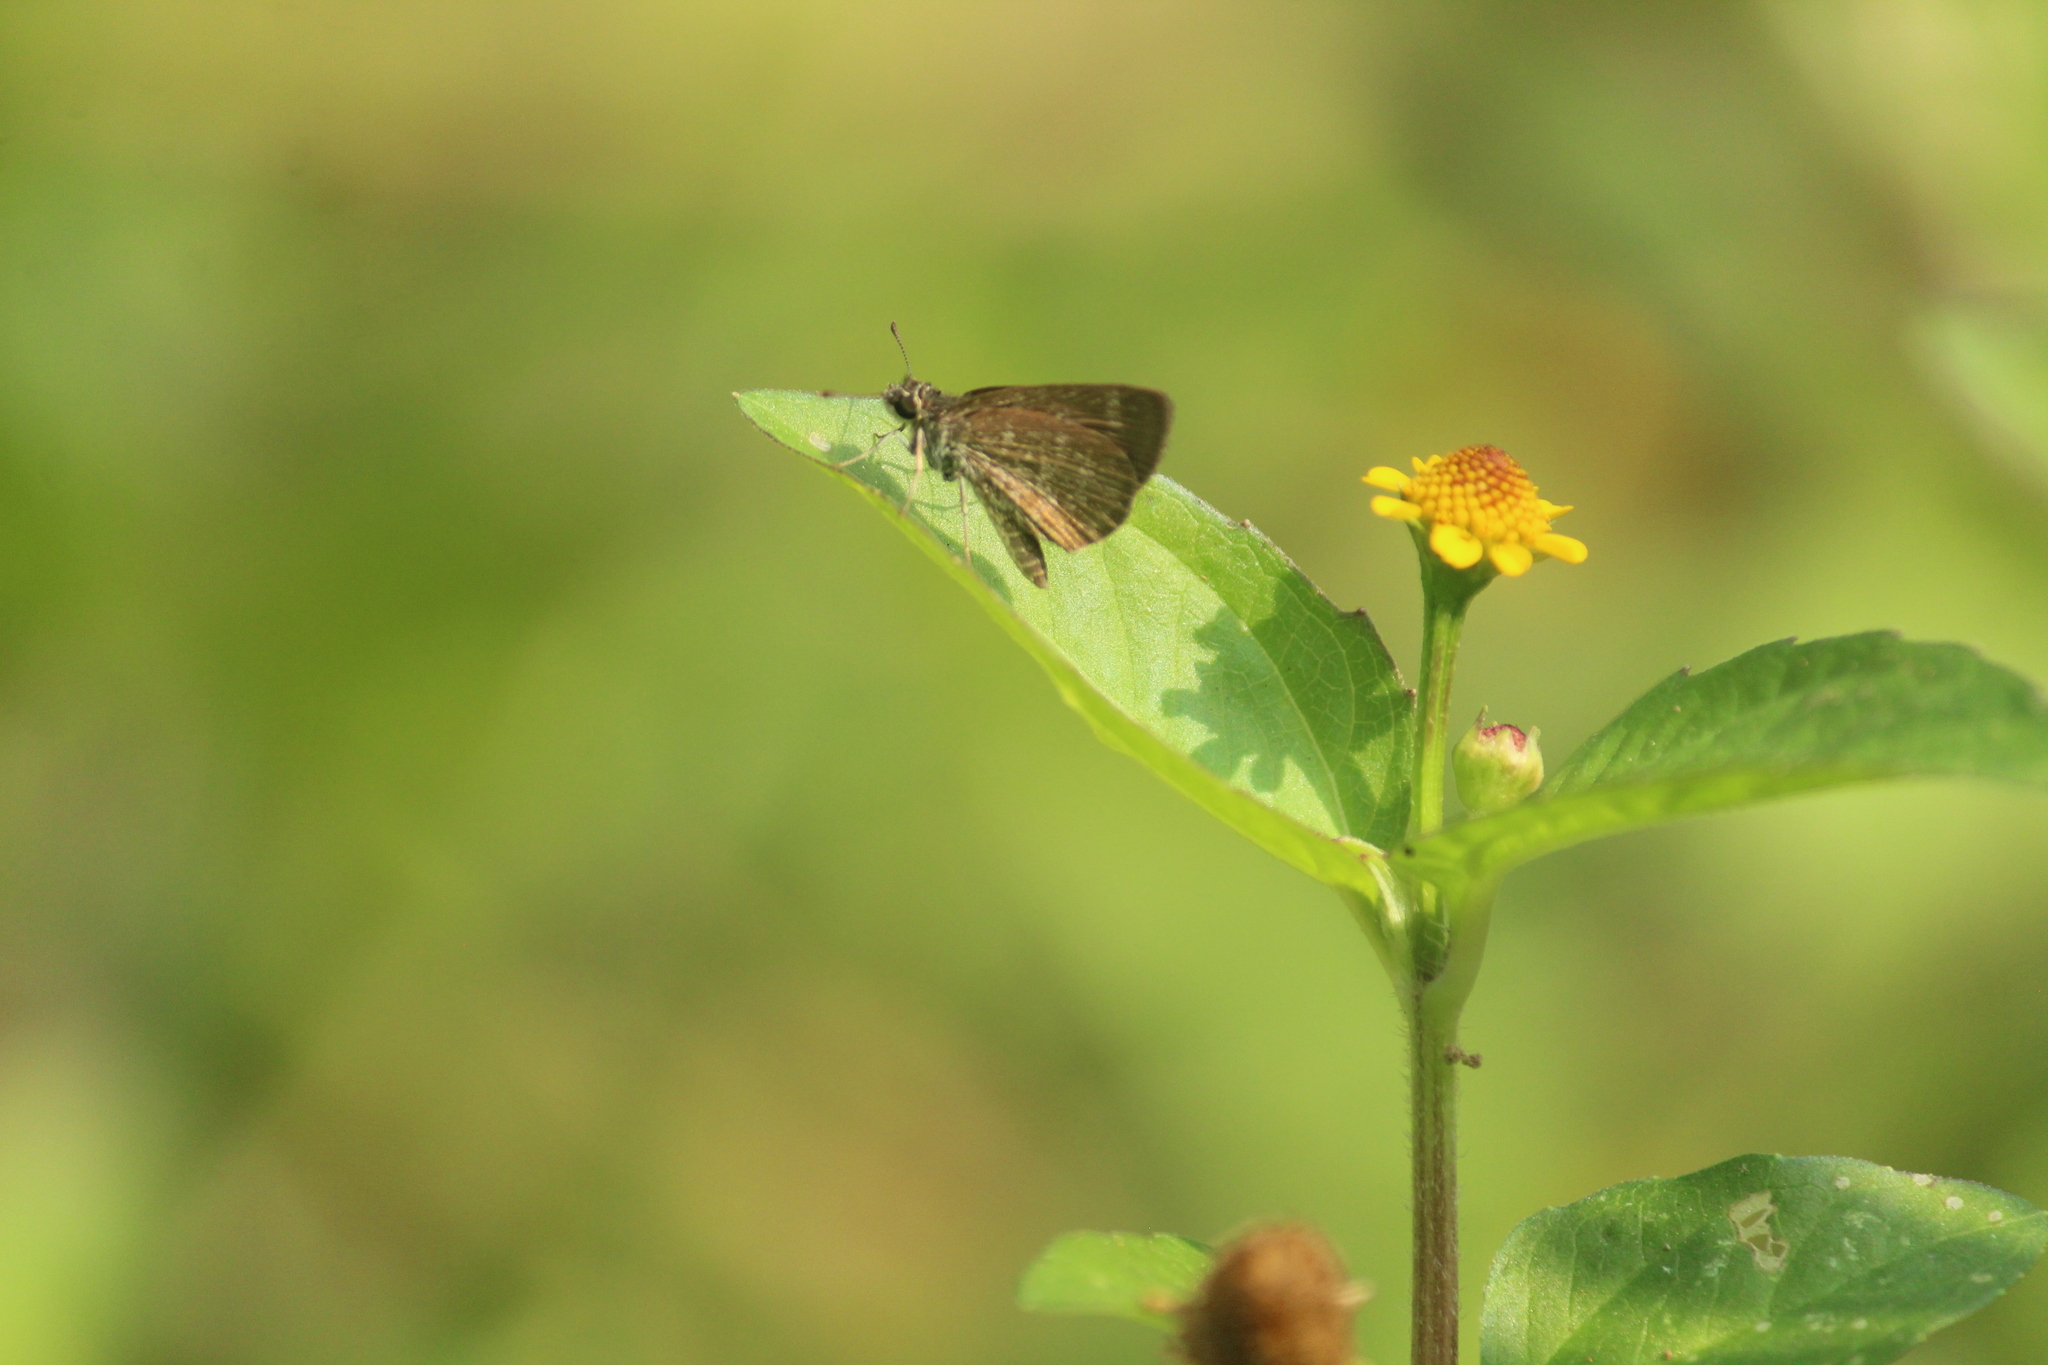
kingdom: Animalia
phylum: Arthropoda
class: Insecta
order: Lepidoptera
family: Hesperiidae
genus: Aeromachus
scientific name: Aeromachus pygmaeus
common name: Pygmy scrub hopper
